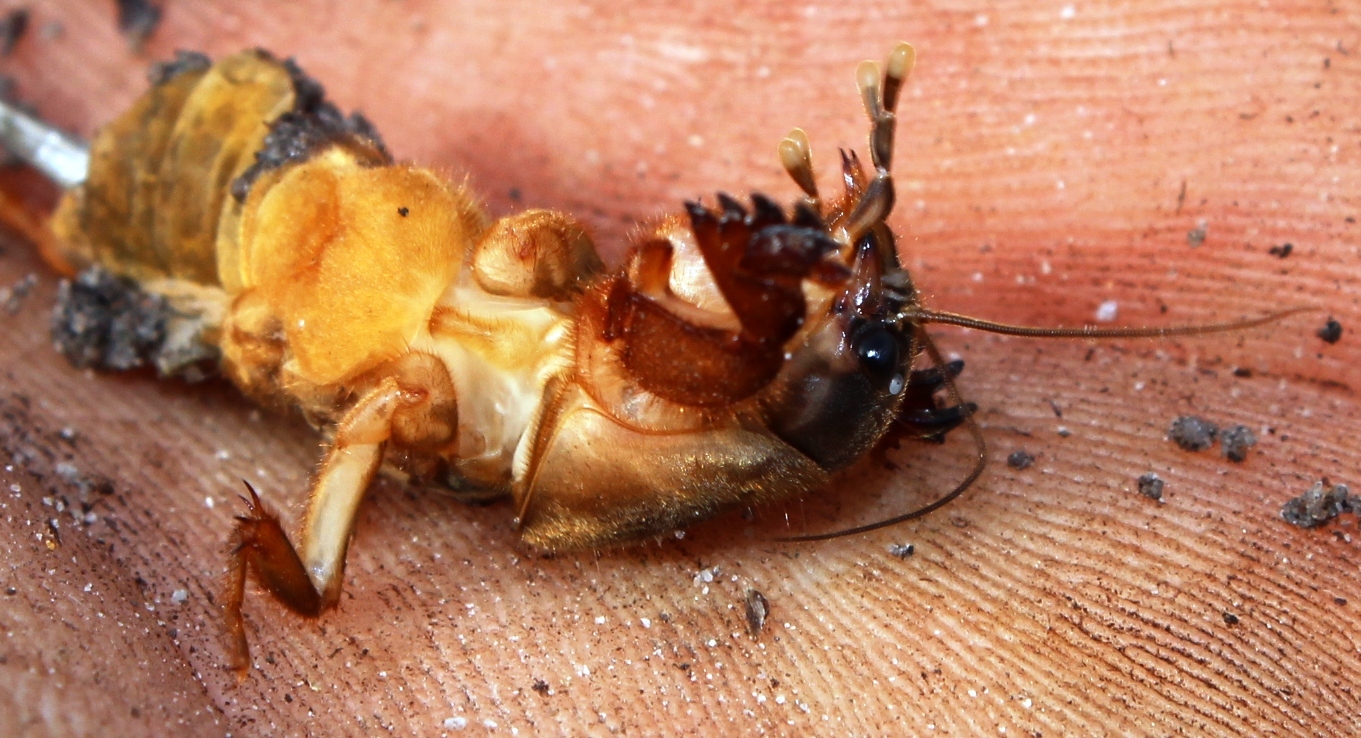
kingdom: Animalia
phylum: Arthropoda
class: Insecta
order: Orthoptera
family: Gryllotalpidae
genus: Gryllotalpa
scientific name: Gryllotalpa africana
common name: African mole cricket
